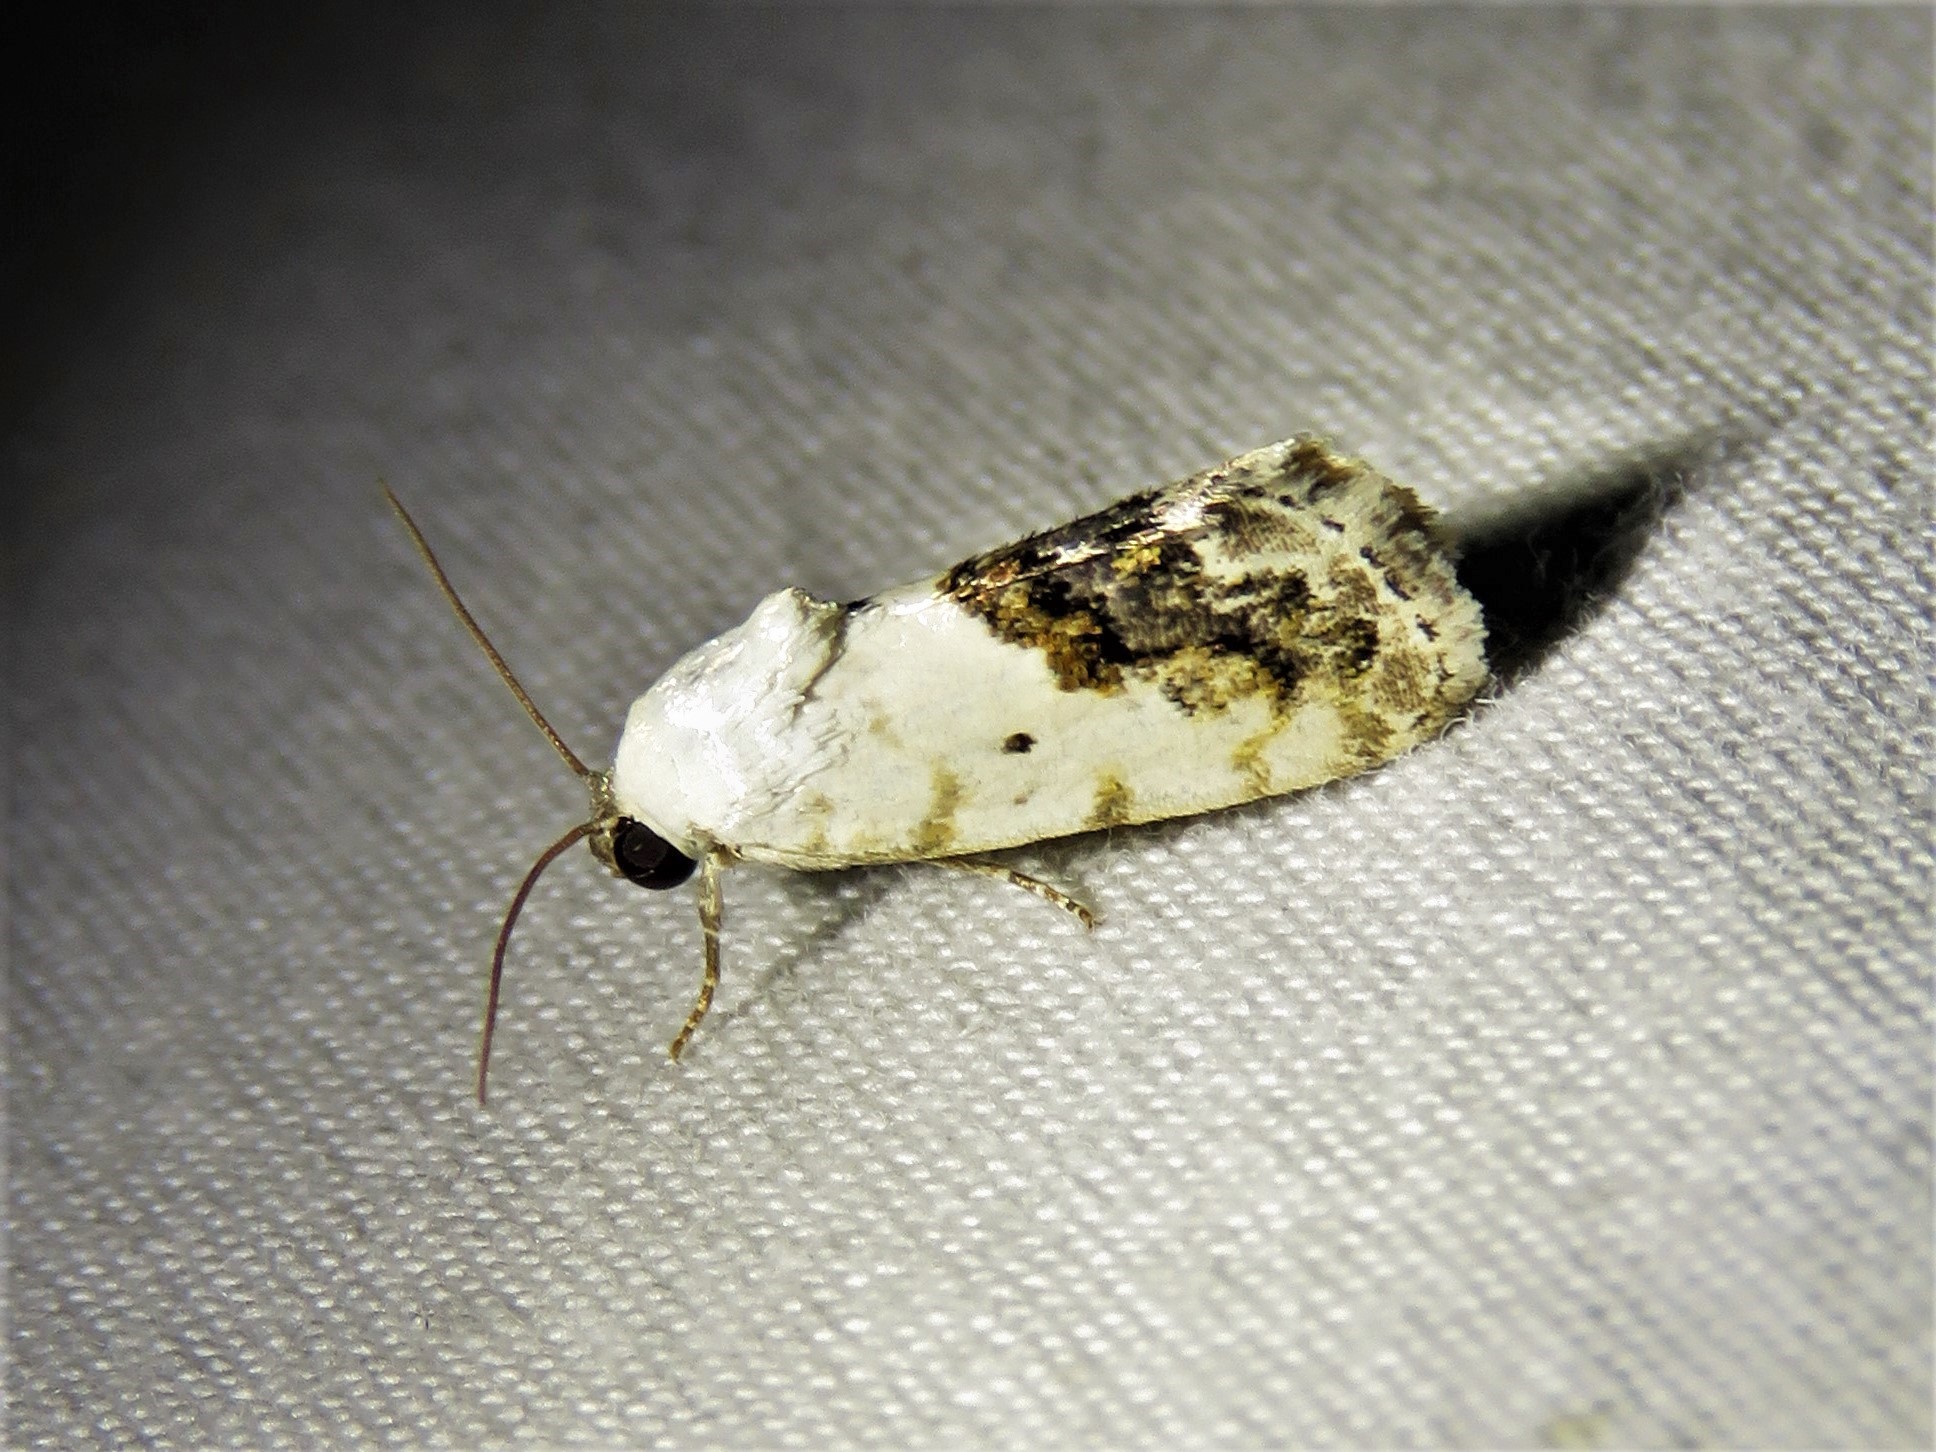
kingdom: Animalia
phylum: Arthropoda
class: Insecta
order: Lepidoptera
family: Noctuidae
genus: Acontia
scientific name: Acontia erastrioides
